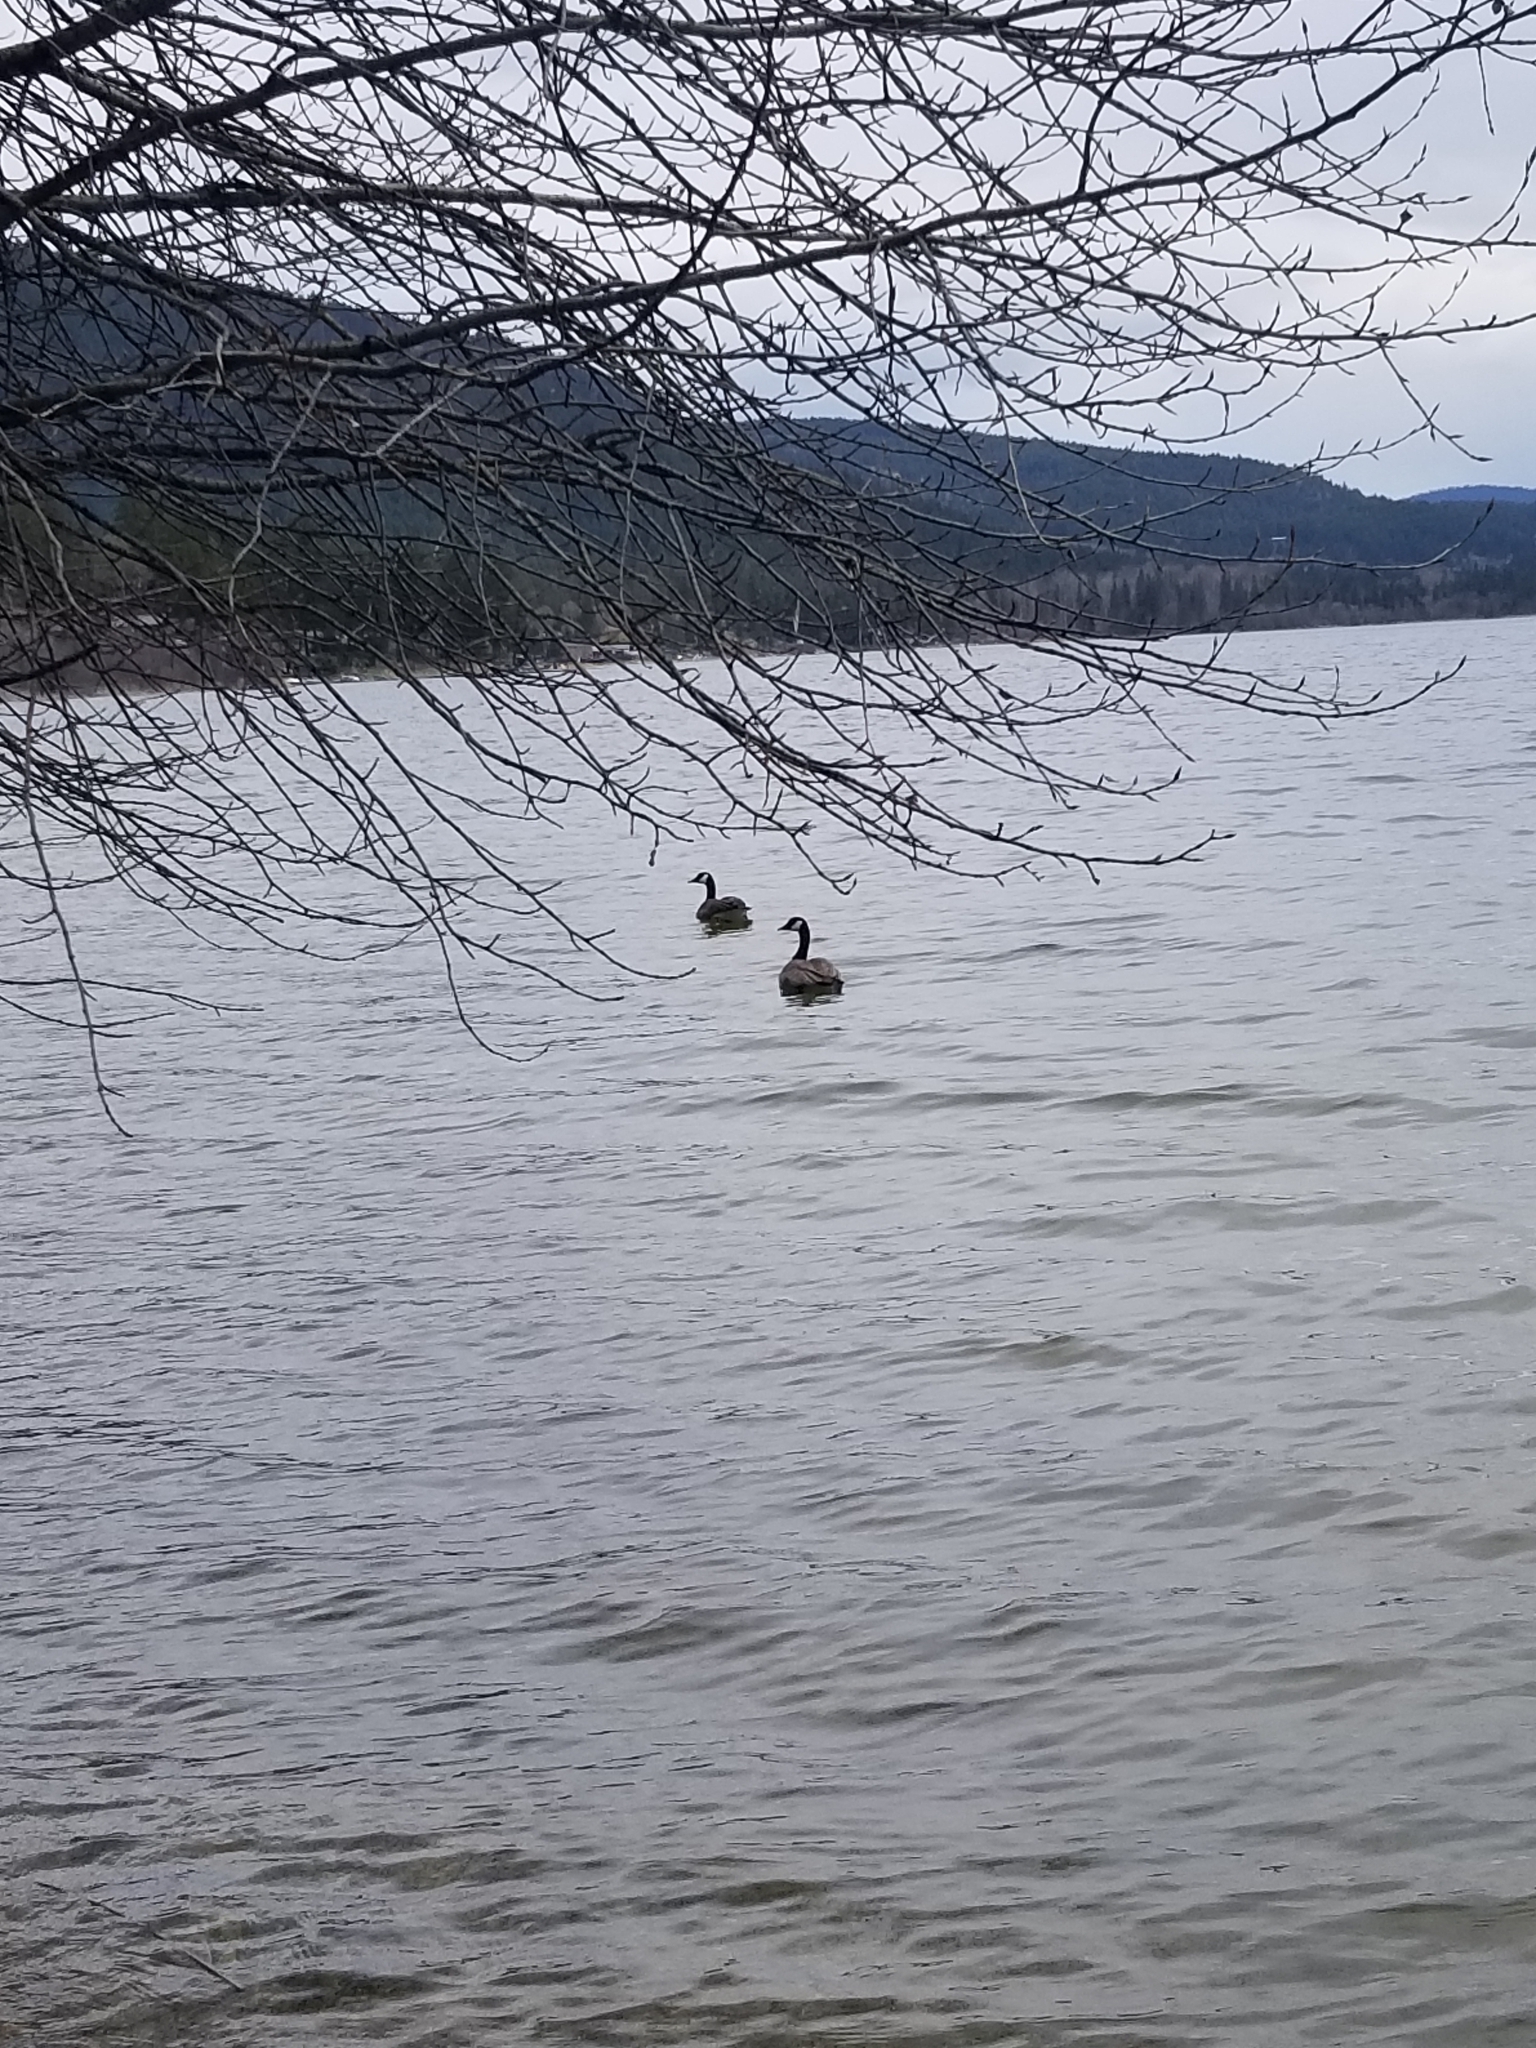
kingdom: Animalia
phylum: Chordata
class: Aves
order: Anseriformes
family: Anatidae
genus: Branta
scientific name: Branta canadensis
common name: Canada goose
